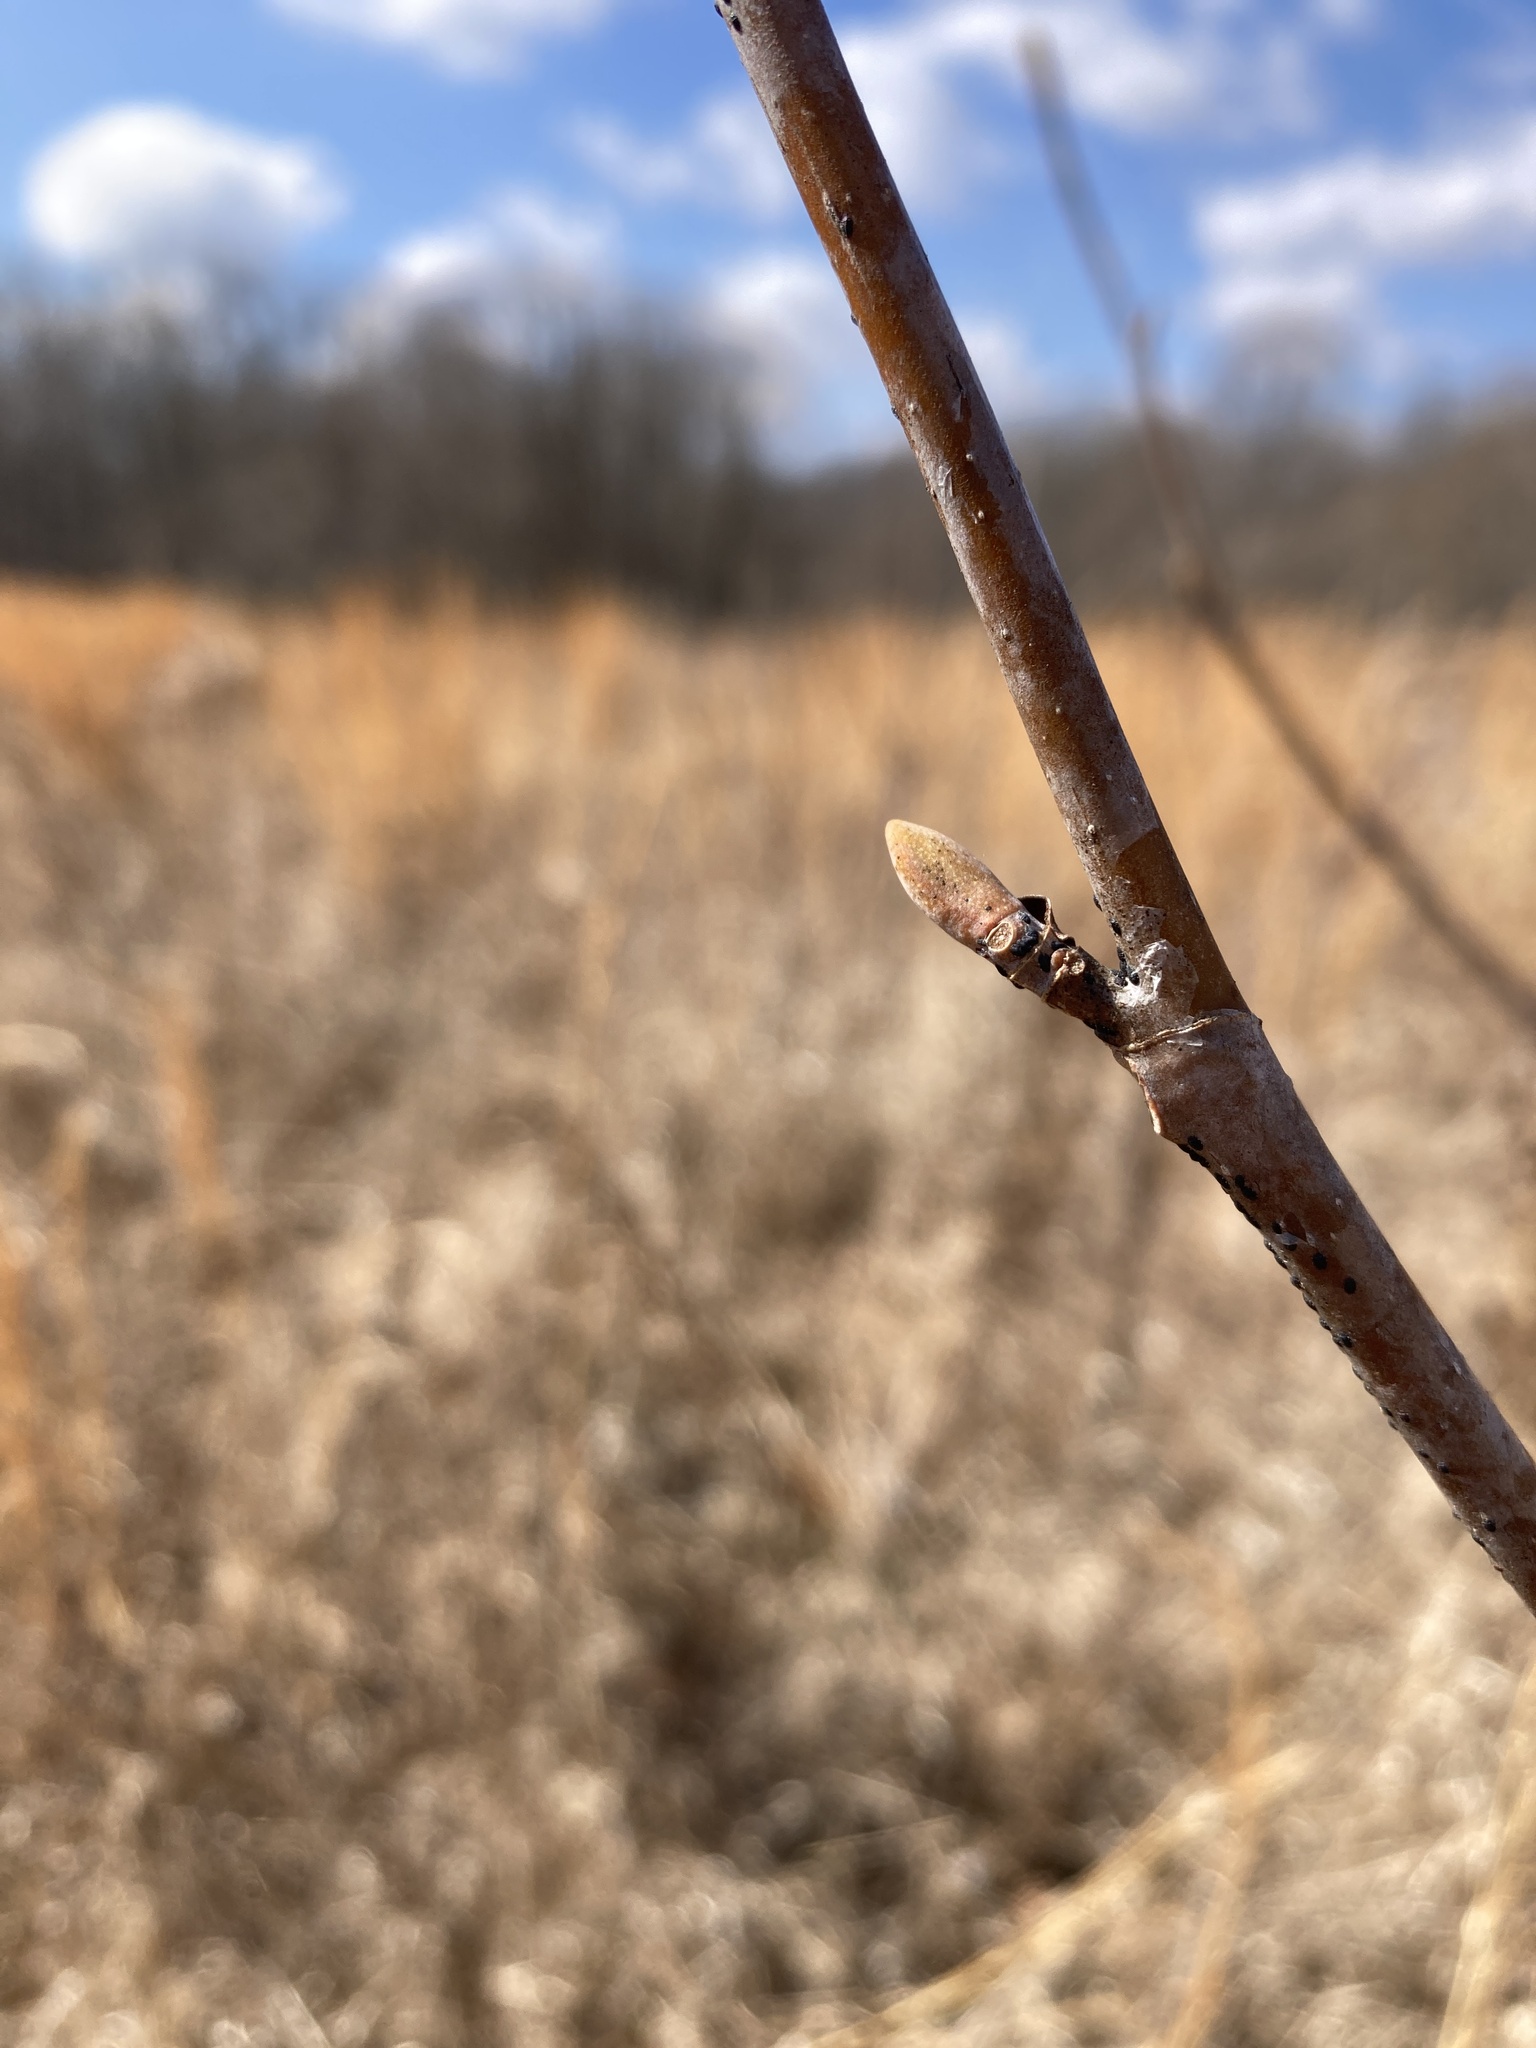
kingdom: Plantae
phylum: Tracheophyta
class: Magnoliopsida
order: Magnoliales
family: Magnoliaceae
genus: Liriodendron
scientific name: Liriodendron tulipifera
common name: Tulip tree
